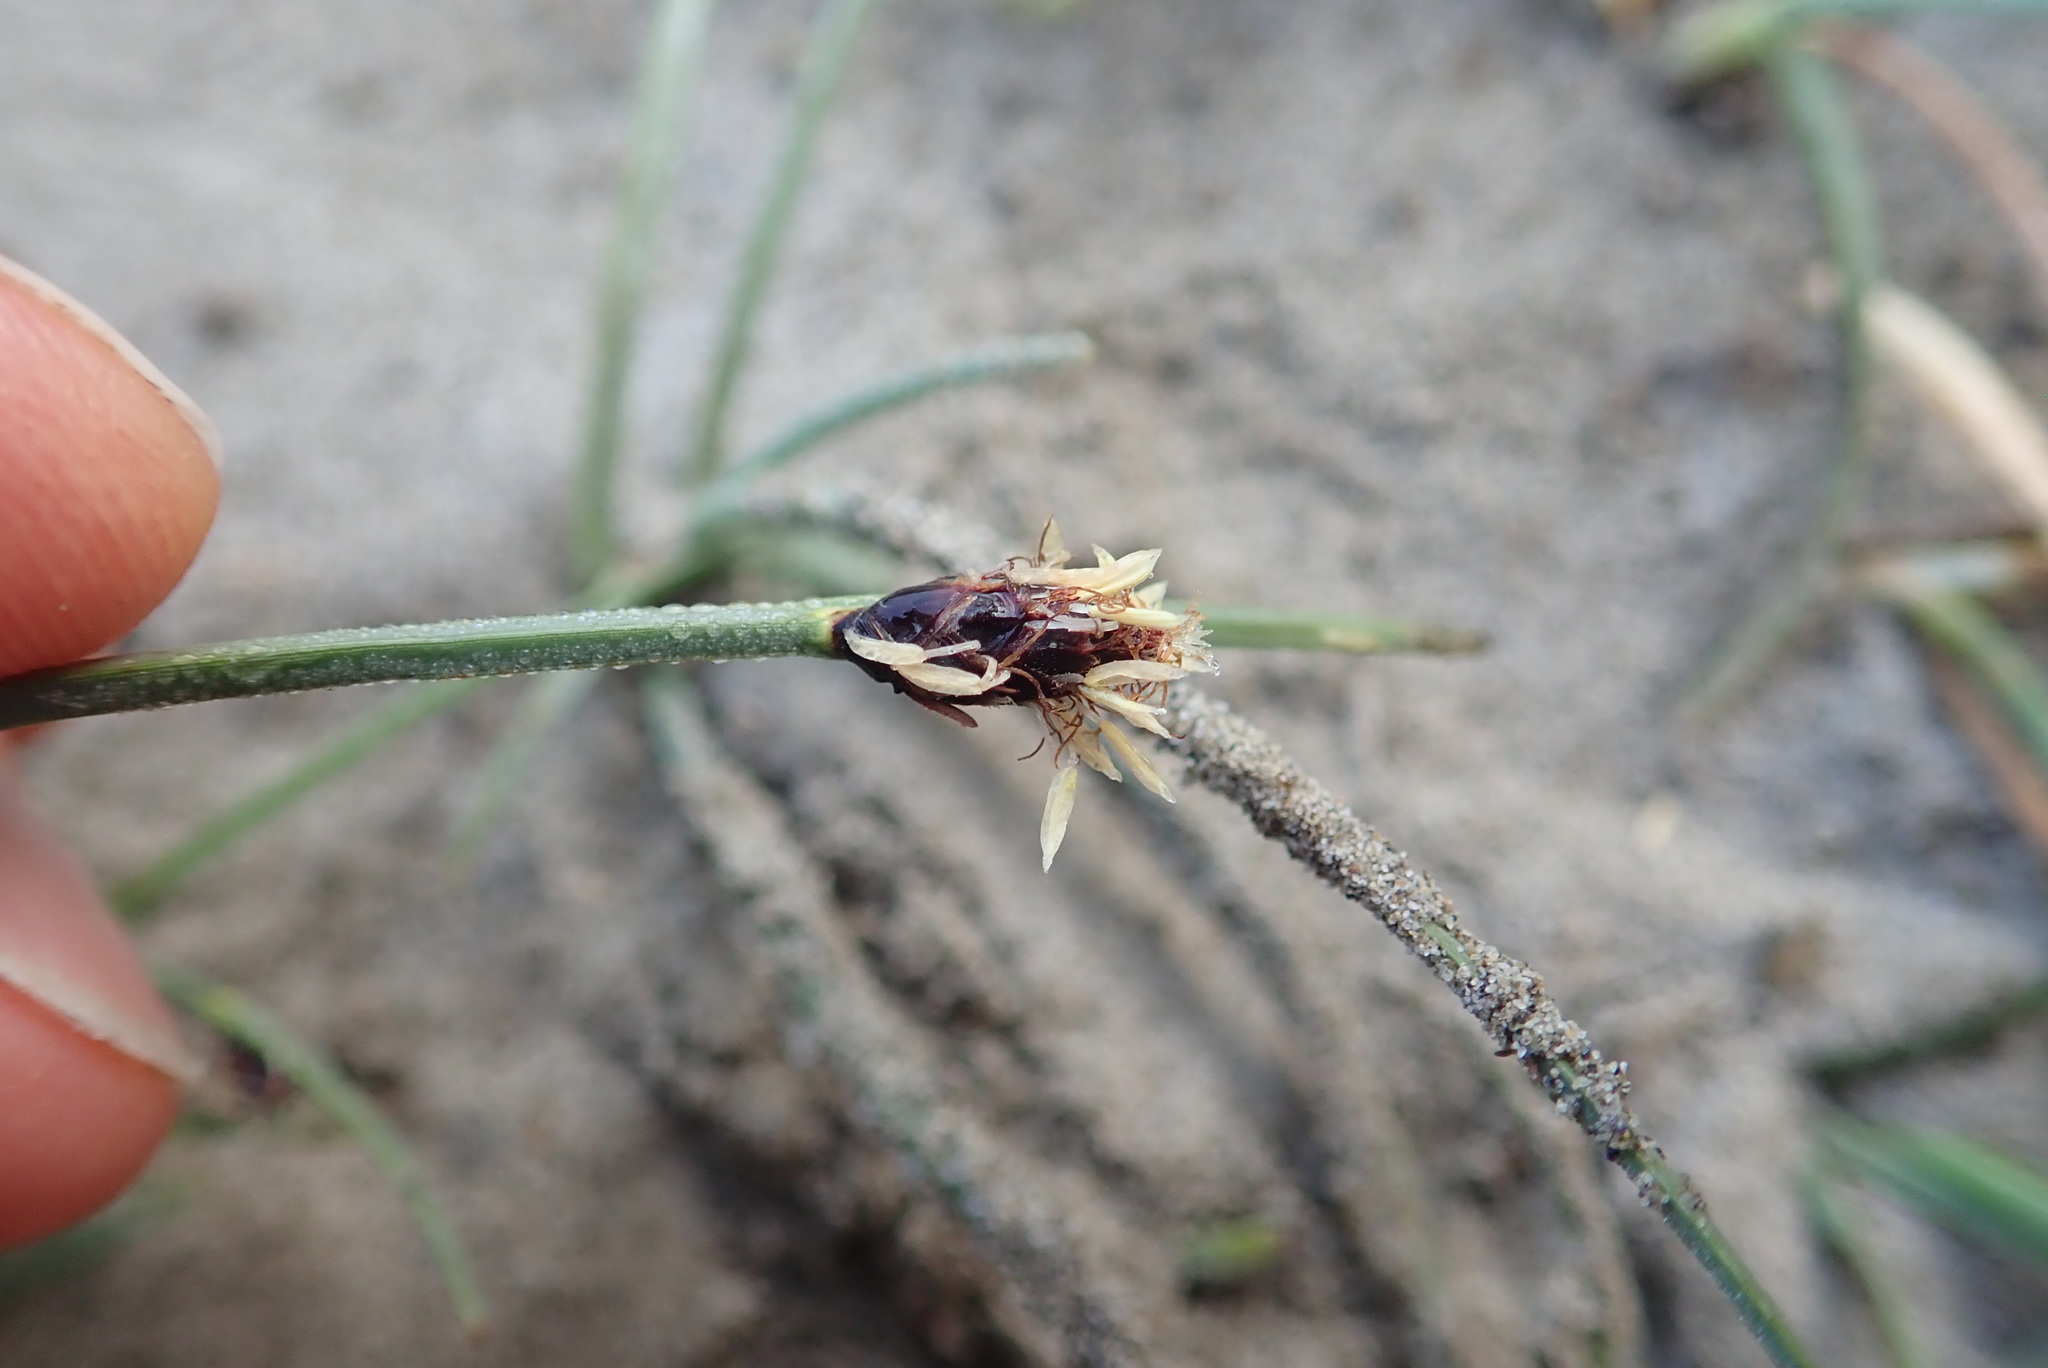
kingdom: Plantae
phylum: Tracheophyta
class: Liliopsida
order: Poales
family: Cyperaceae
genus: Schoenoplectus
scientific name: Schoenoplectus pungens
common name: Sharp club-rush
